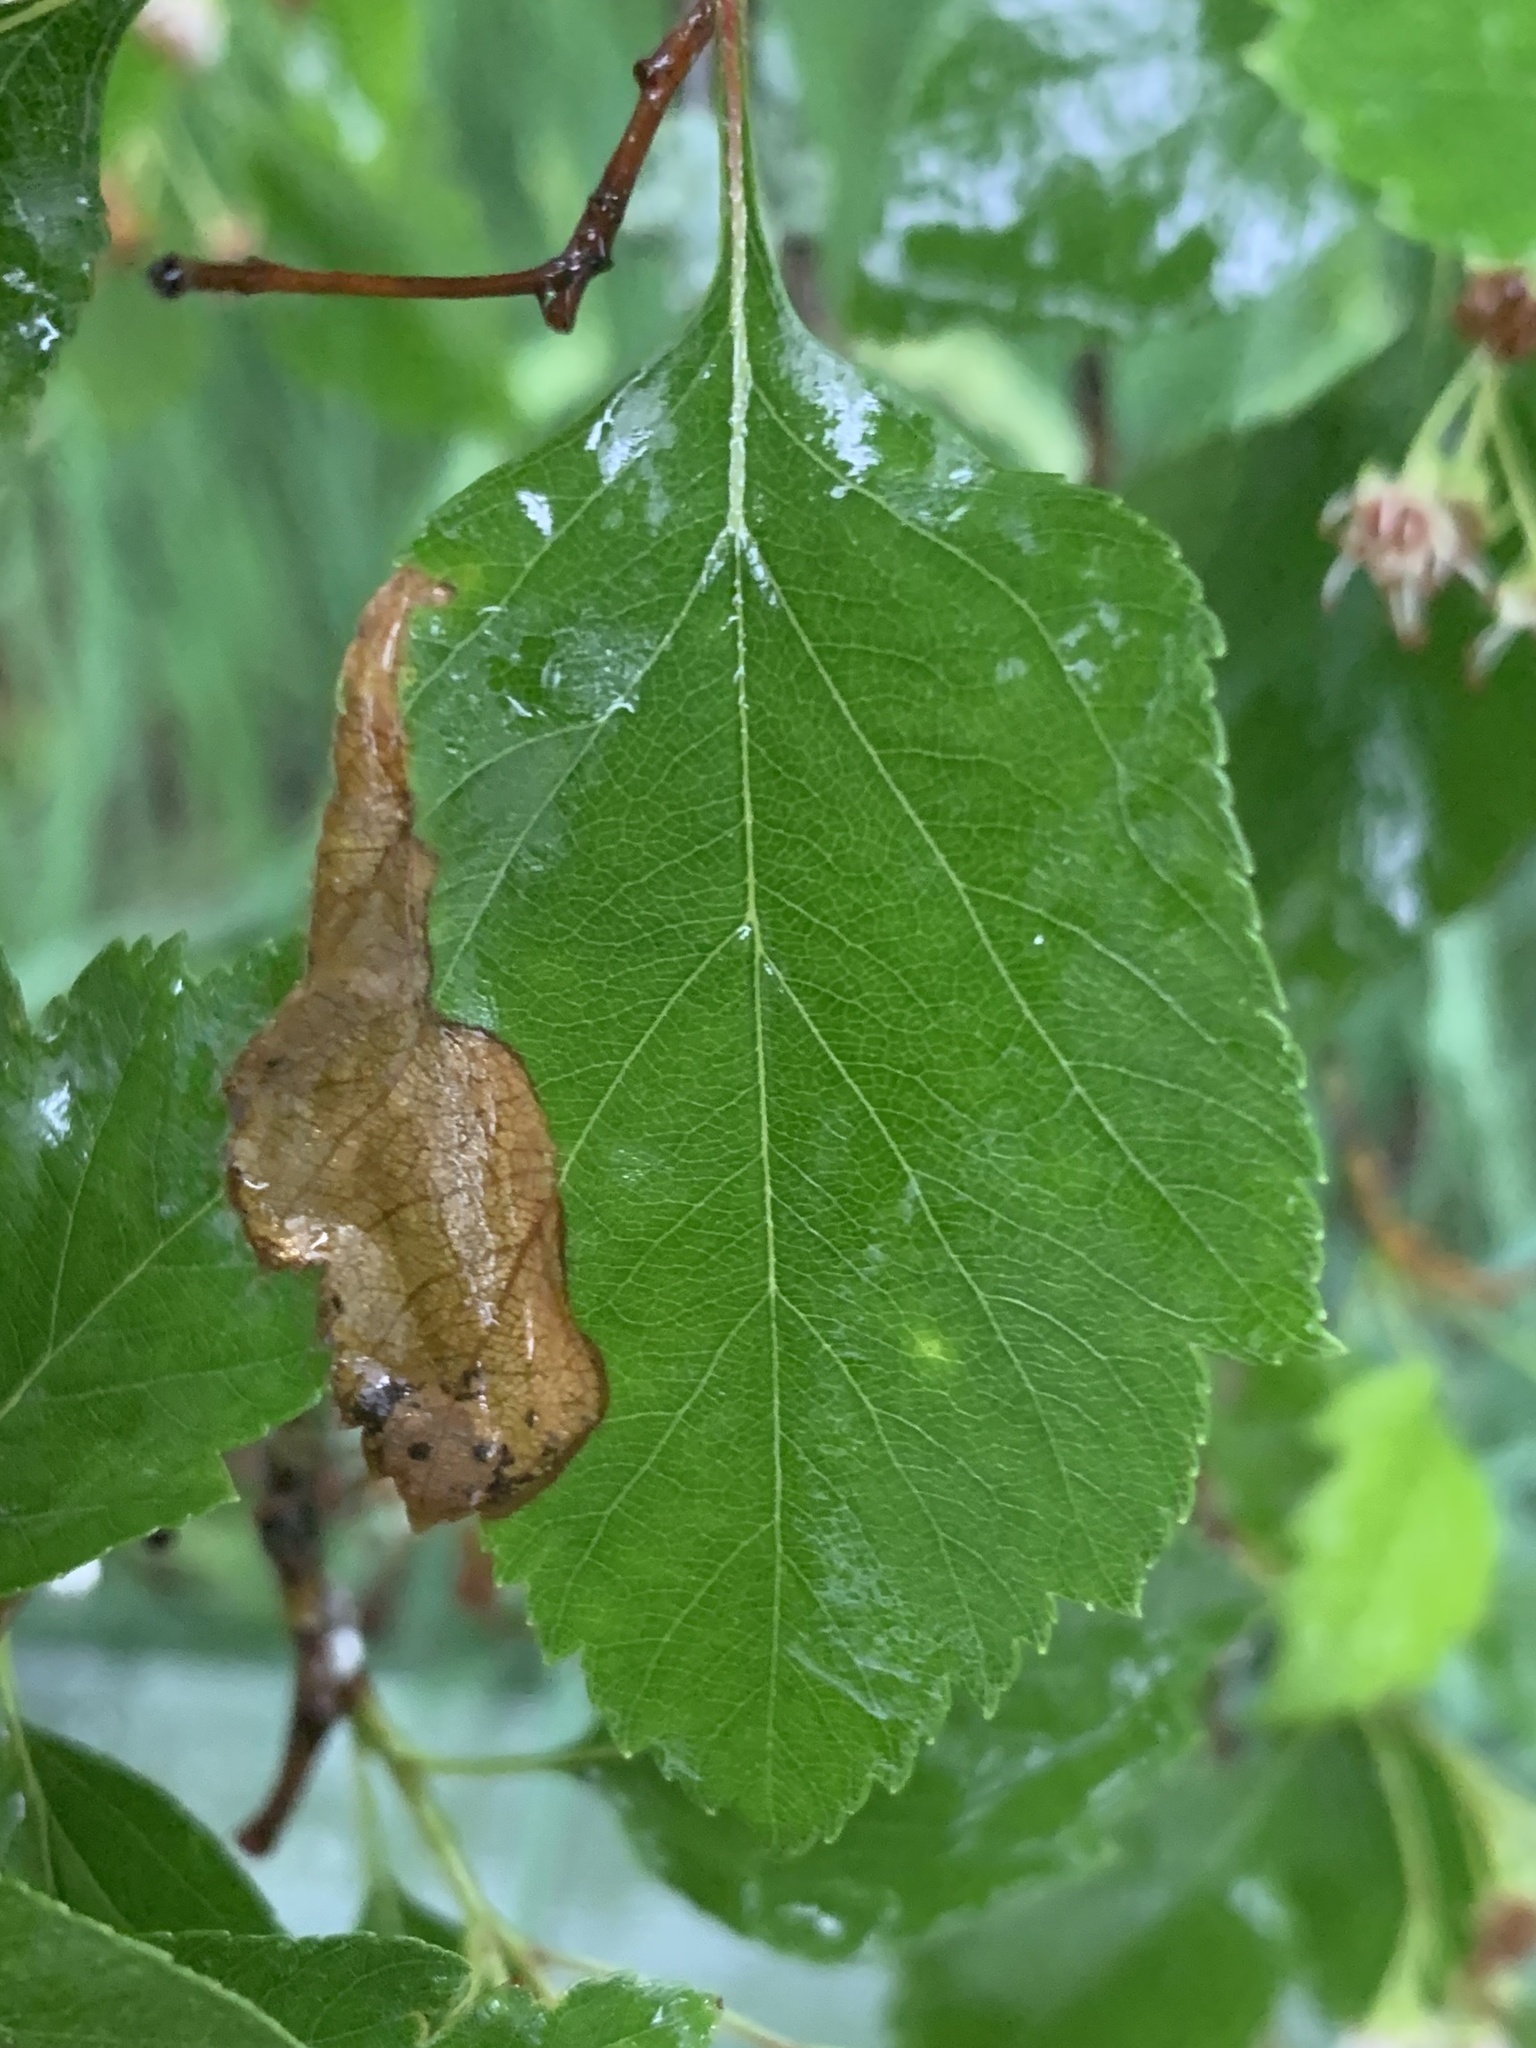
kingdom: Animalia
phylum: Arthropoda
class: Insecta
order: Hymenoptera
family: Tenthredinidae
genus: Profenusa
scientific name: Profenusa
